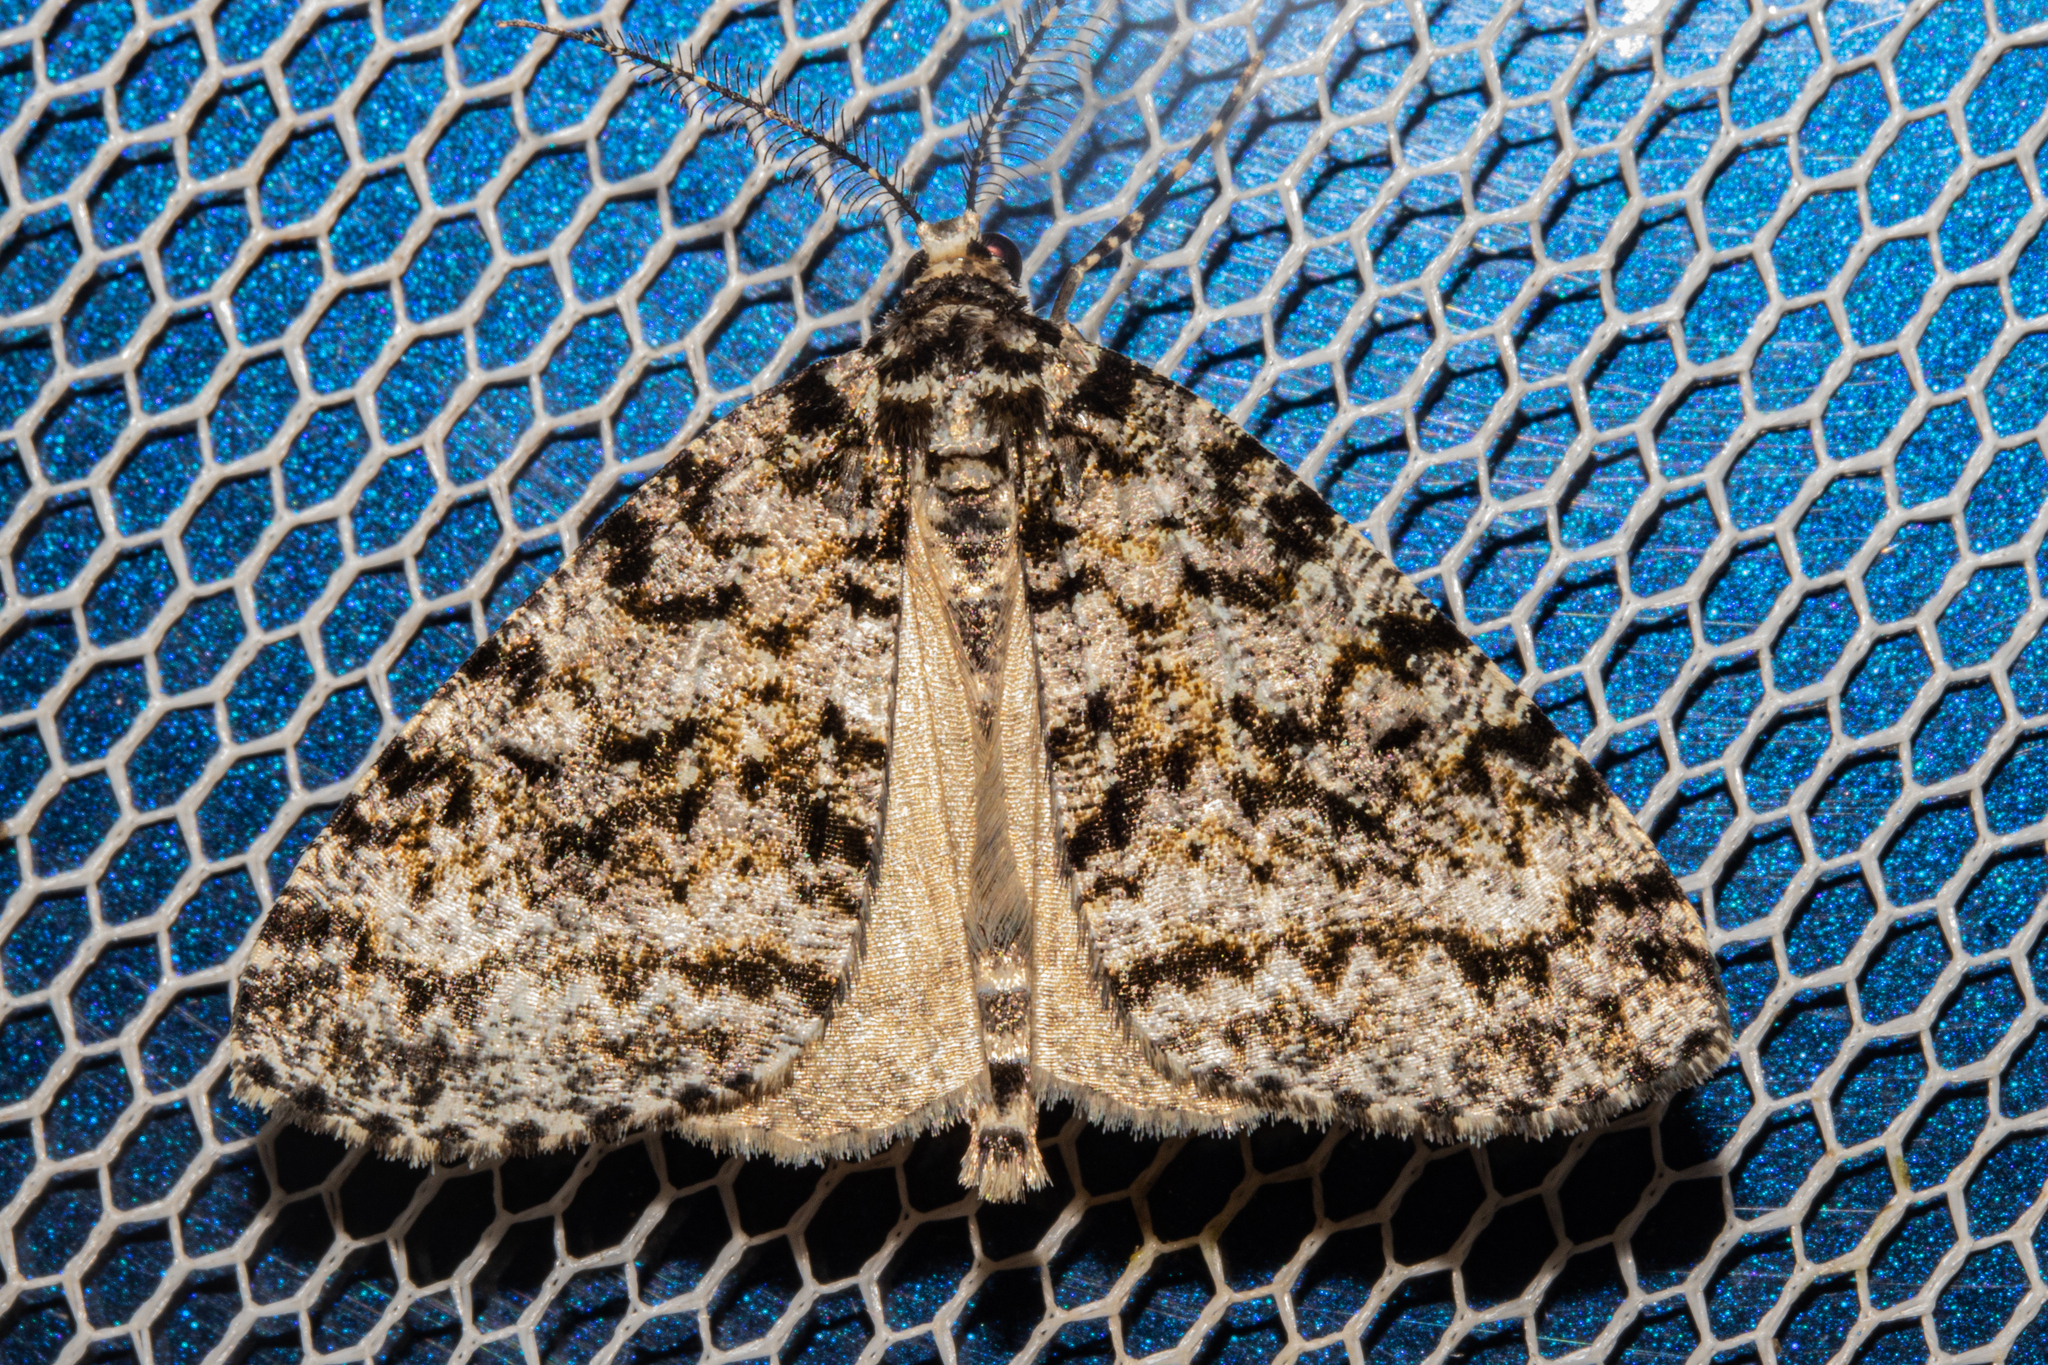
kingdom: Animalia
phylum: Arthropoda
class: Insecta
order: Lepidoptera
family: Geometridae
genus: Pseudocoremia
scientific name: Pseudocoremia monacha
